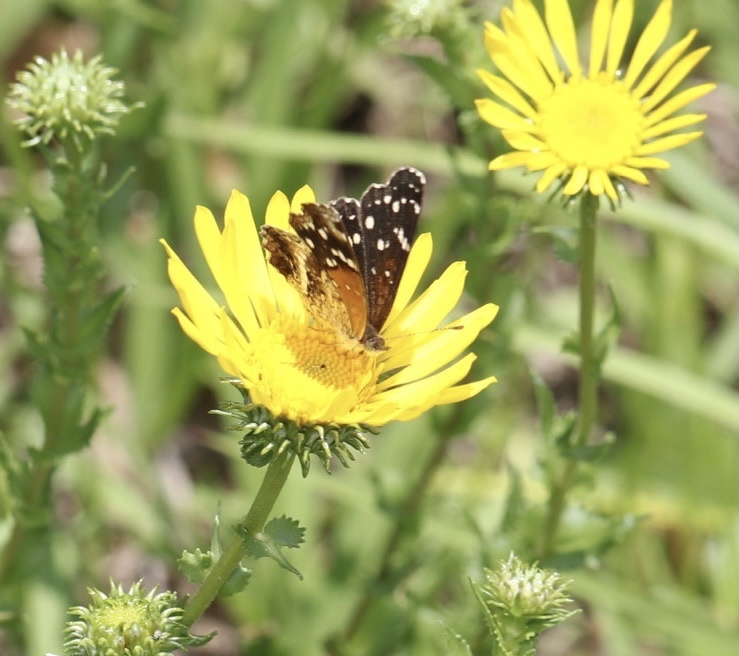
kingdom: Animalia
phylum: Arthropoda
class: Insecta
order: Lepidoptera
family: Nymphalidae
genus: Anthanassa
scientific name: Anthanassa texana
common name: Texan crescent
